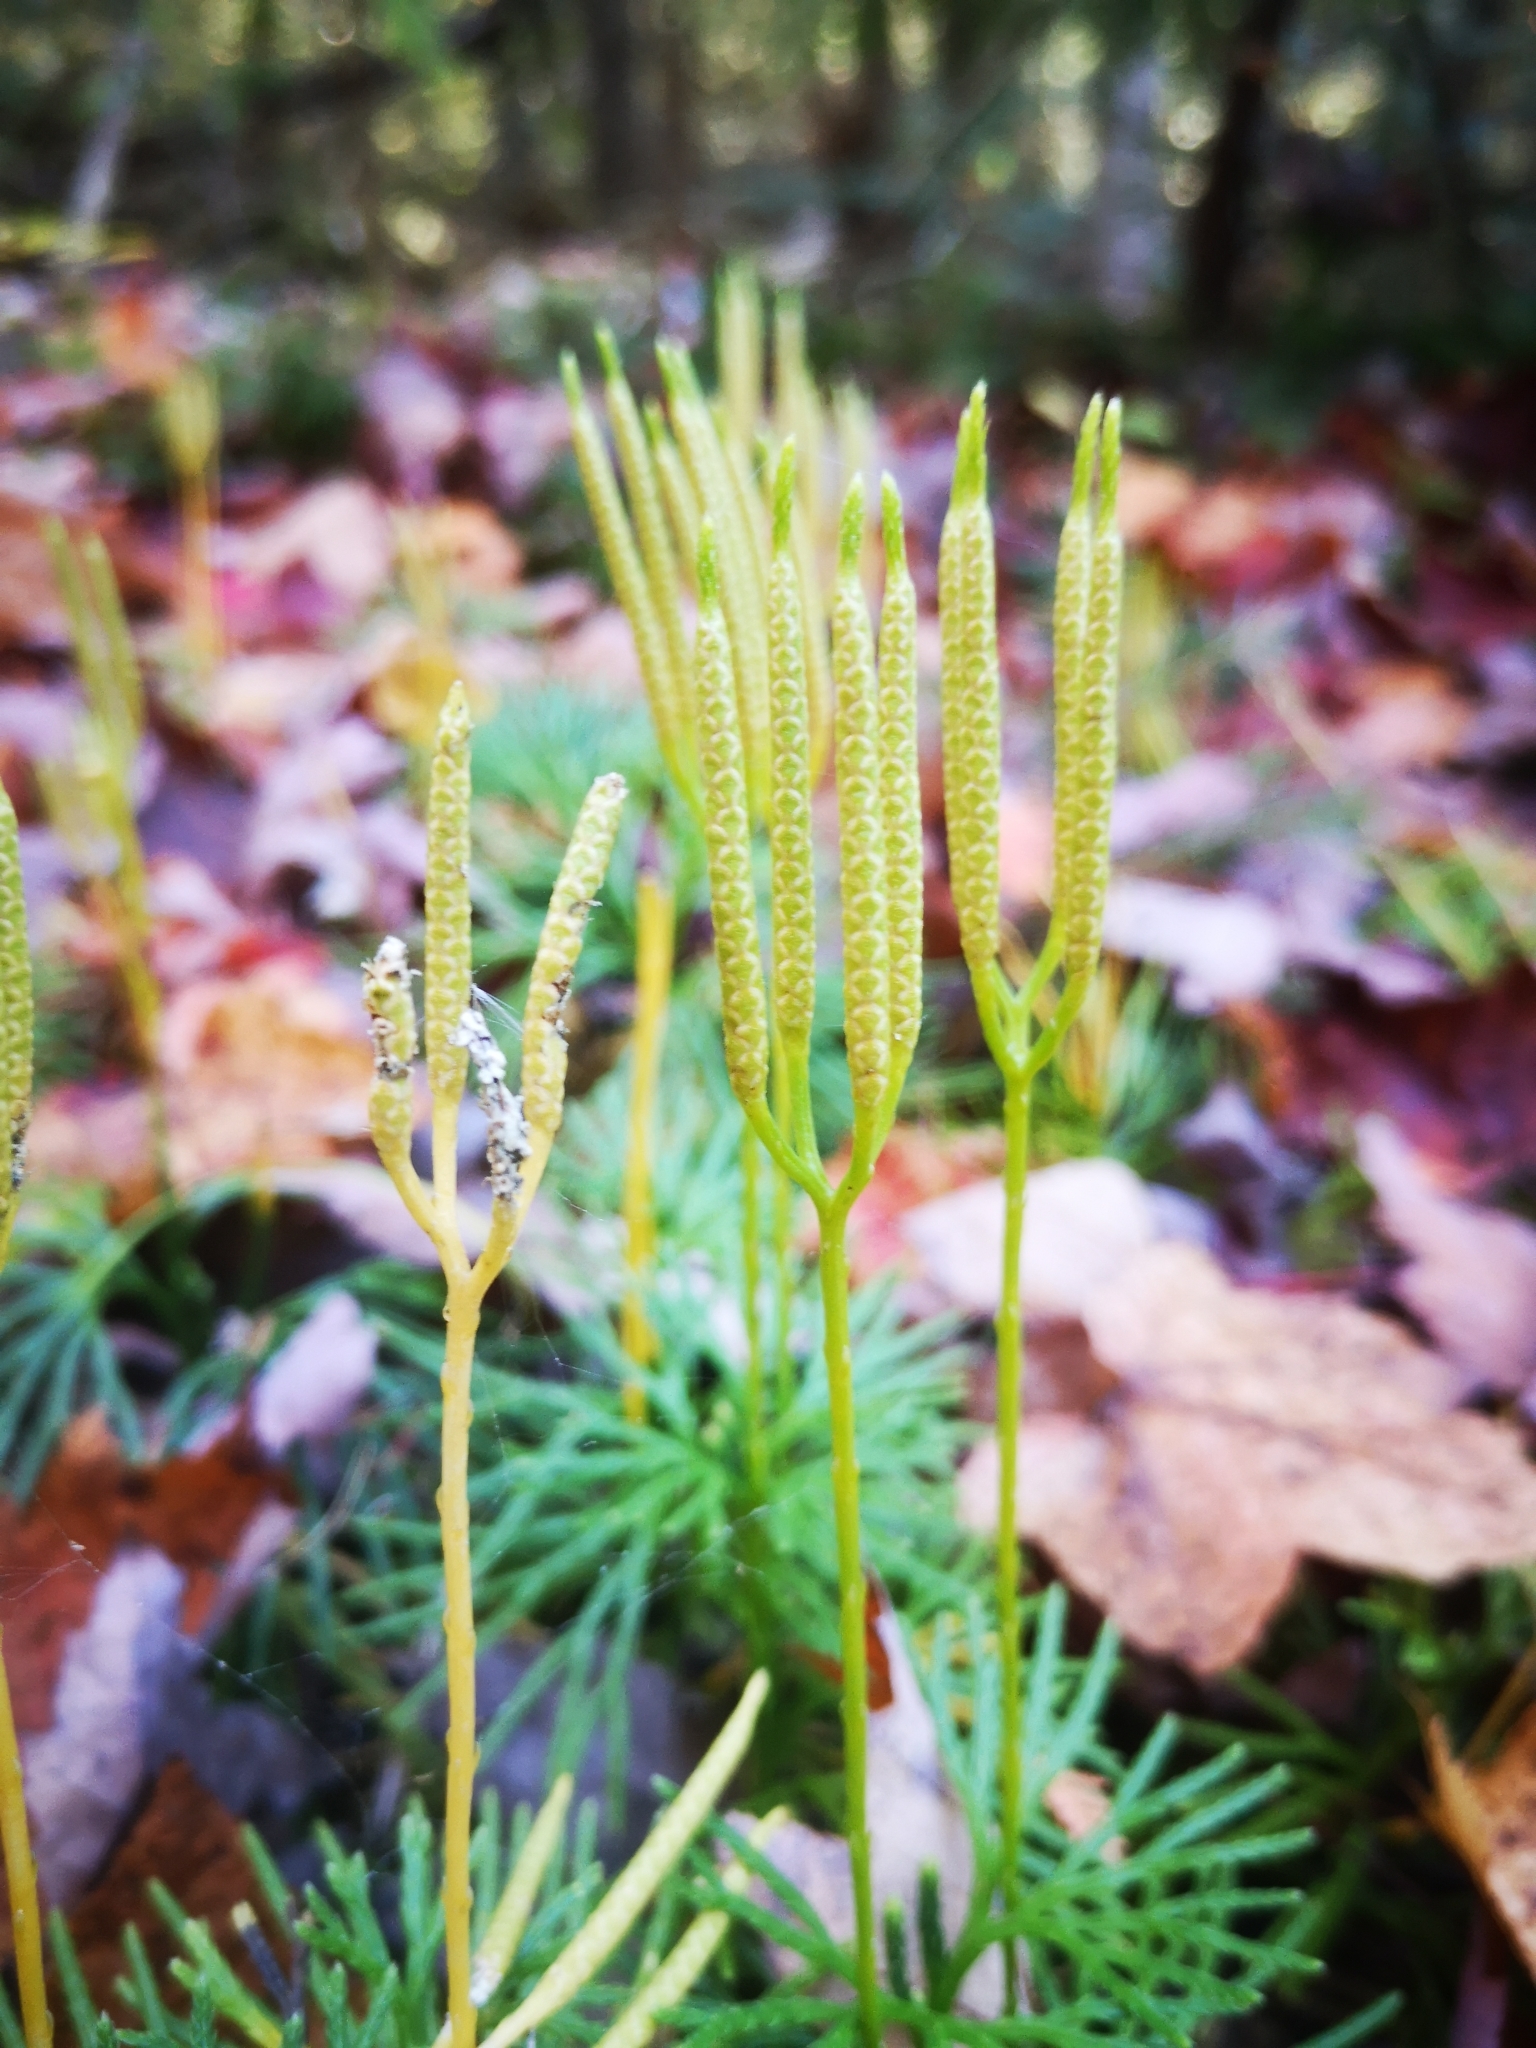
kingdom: Plantae
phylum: Tracheophyta
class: Lycopodiopsida
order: Lycopodiales
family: Lycopodiaceae
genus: Diphasiastrum
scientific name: Diphasiastrum digitatum
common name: Southern running-pine
